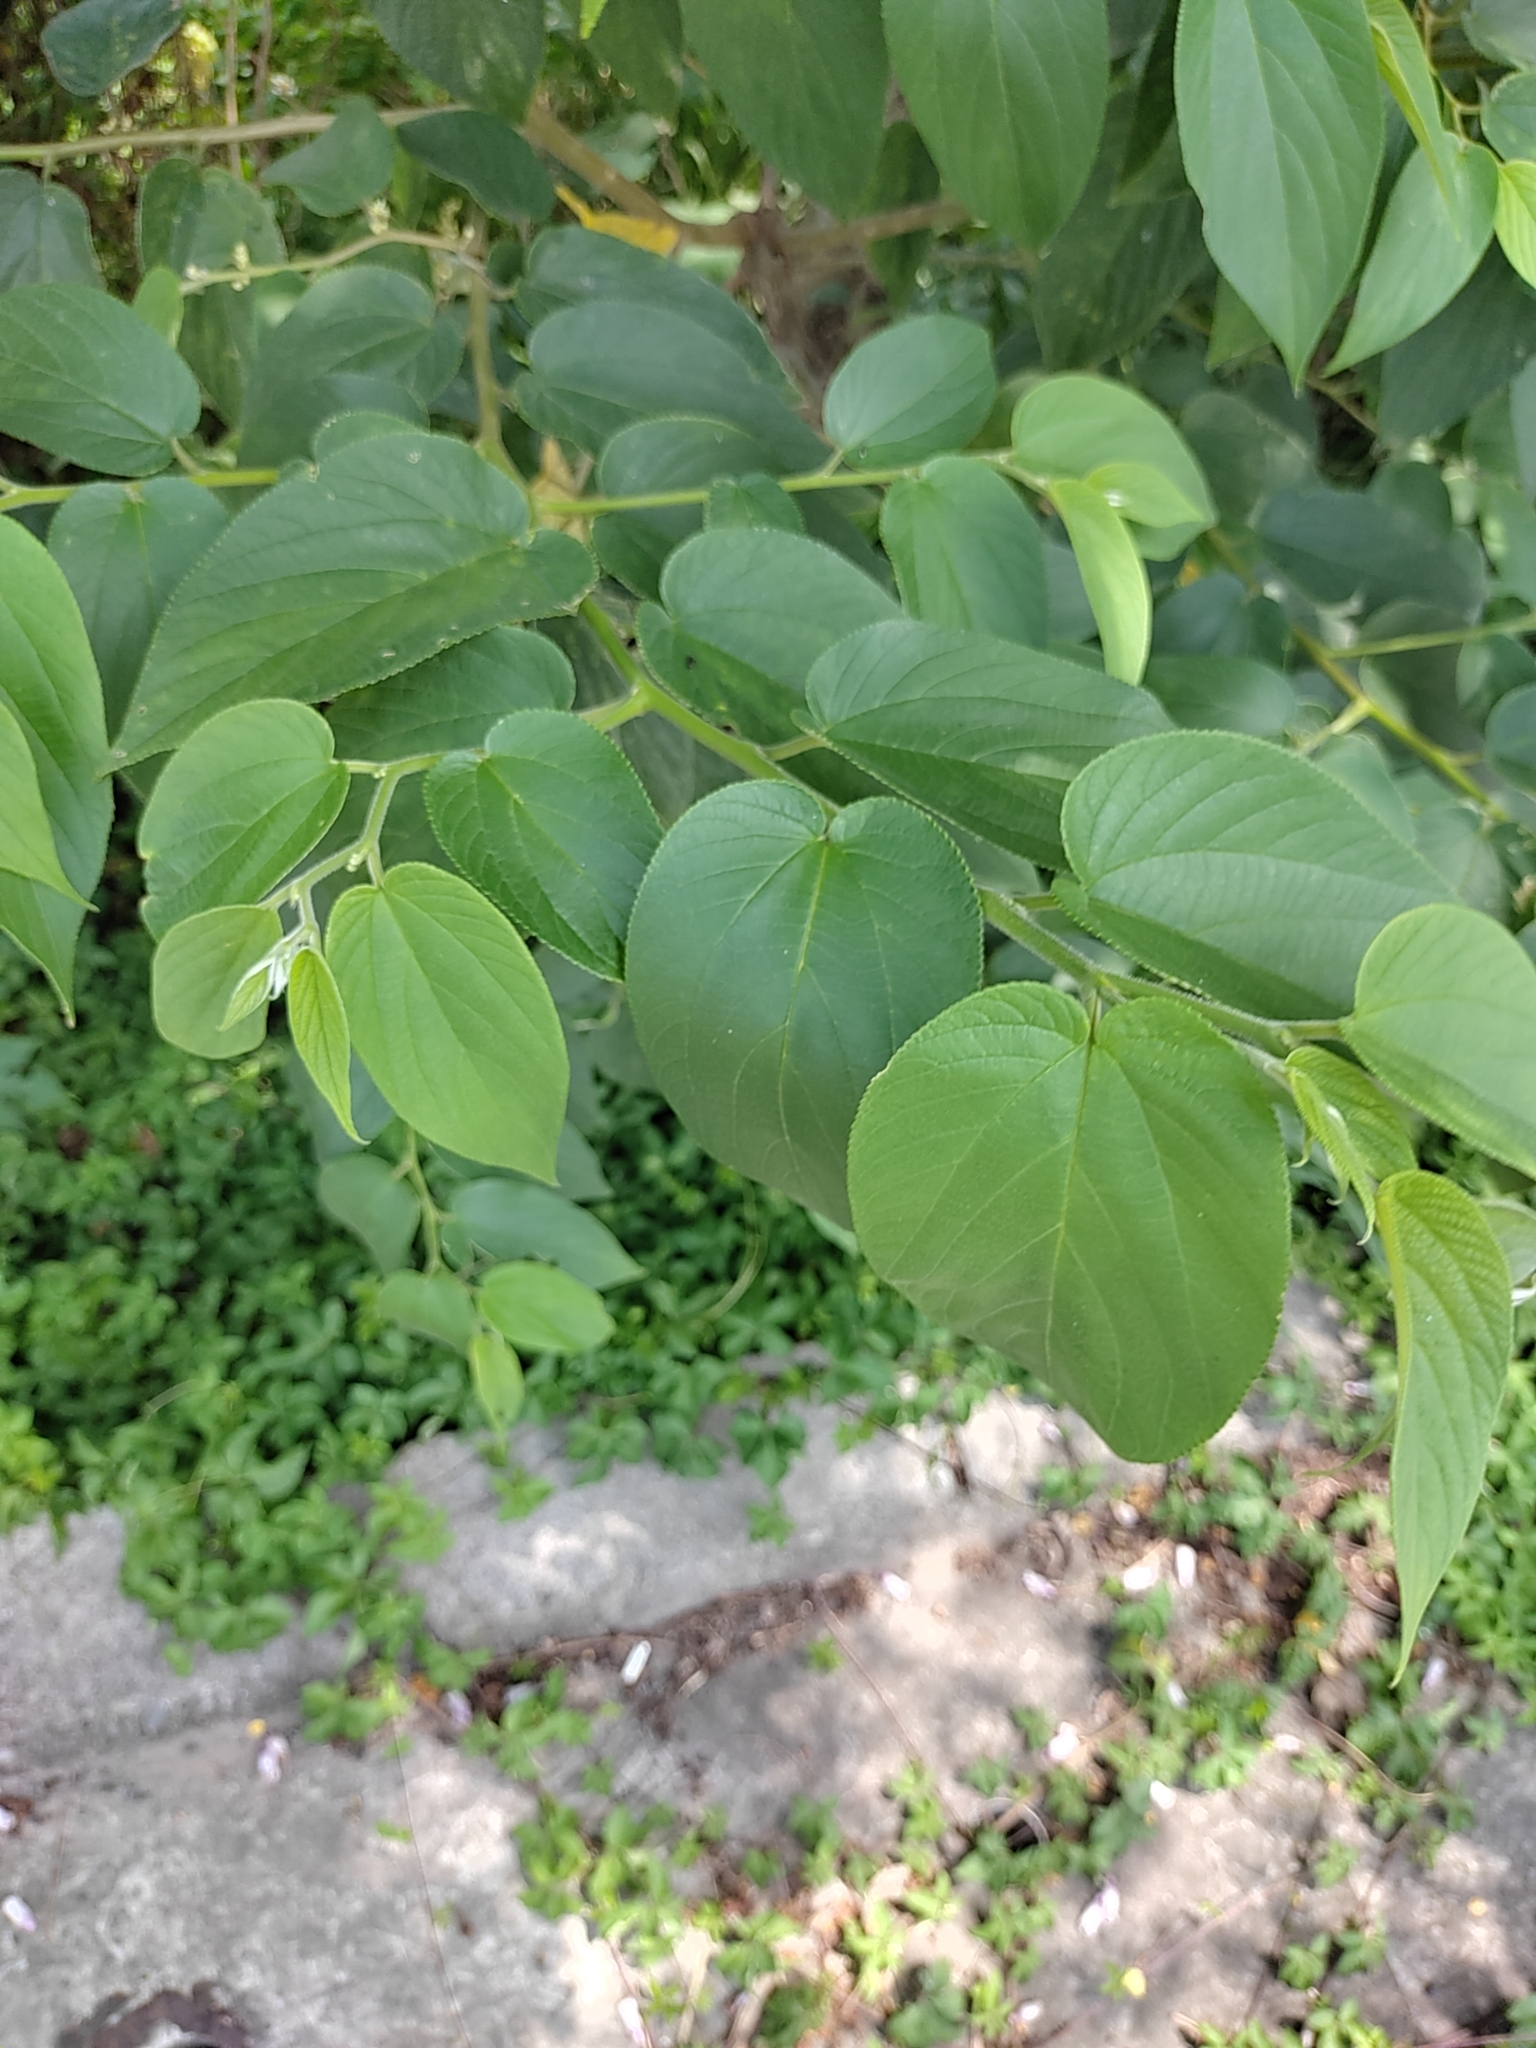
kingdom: Plantae
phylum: Tracheophyta
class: Magnoliopsida
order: Rosales
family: Cannabaceae
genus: Trema
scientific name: Trema orientale
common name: Indian charcoal tree
